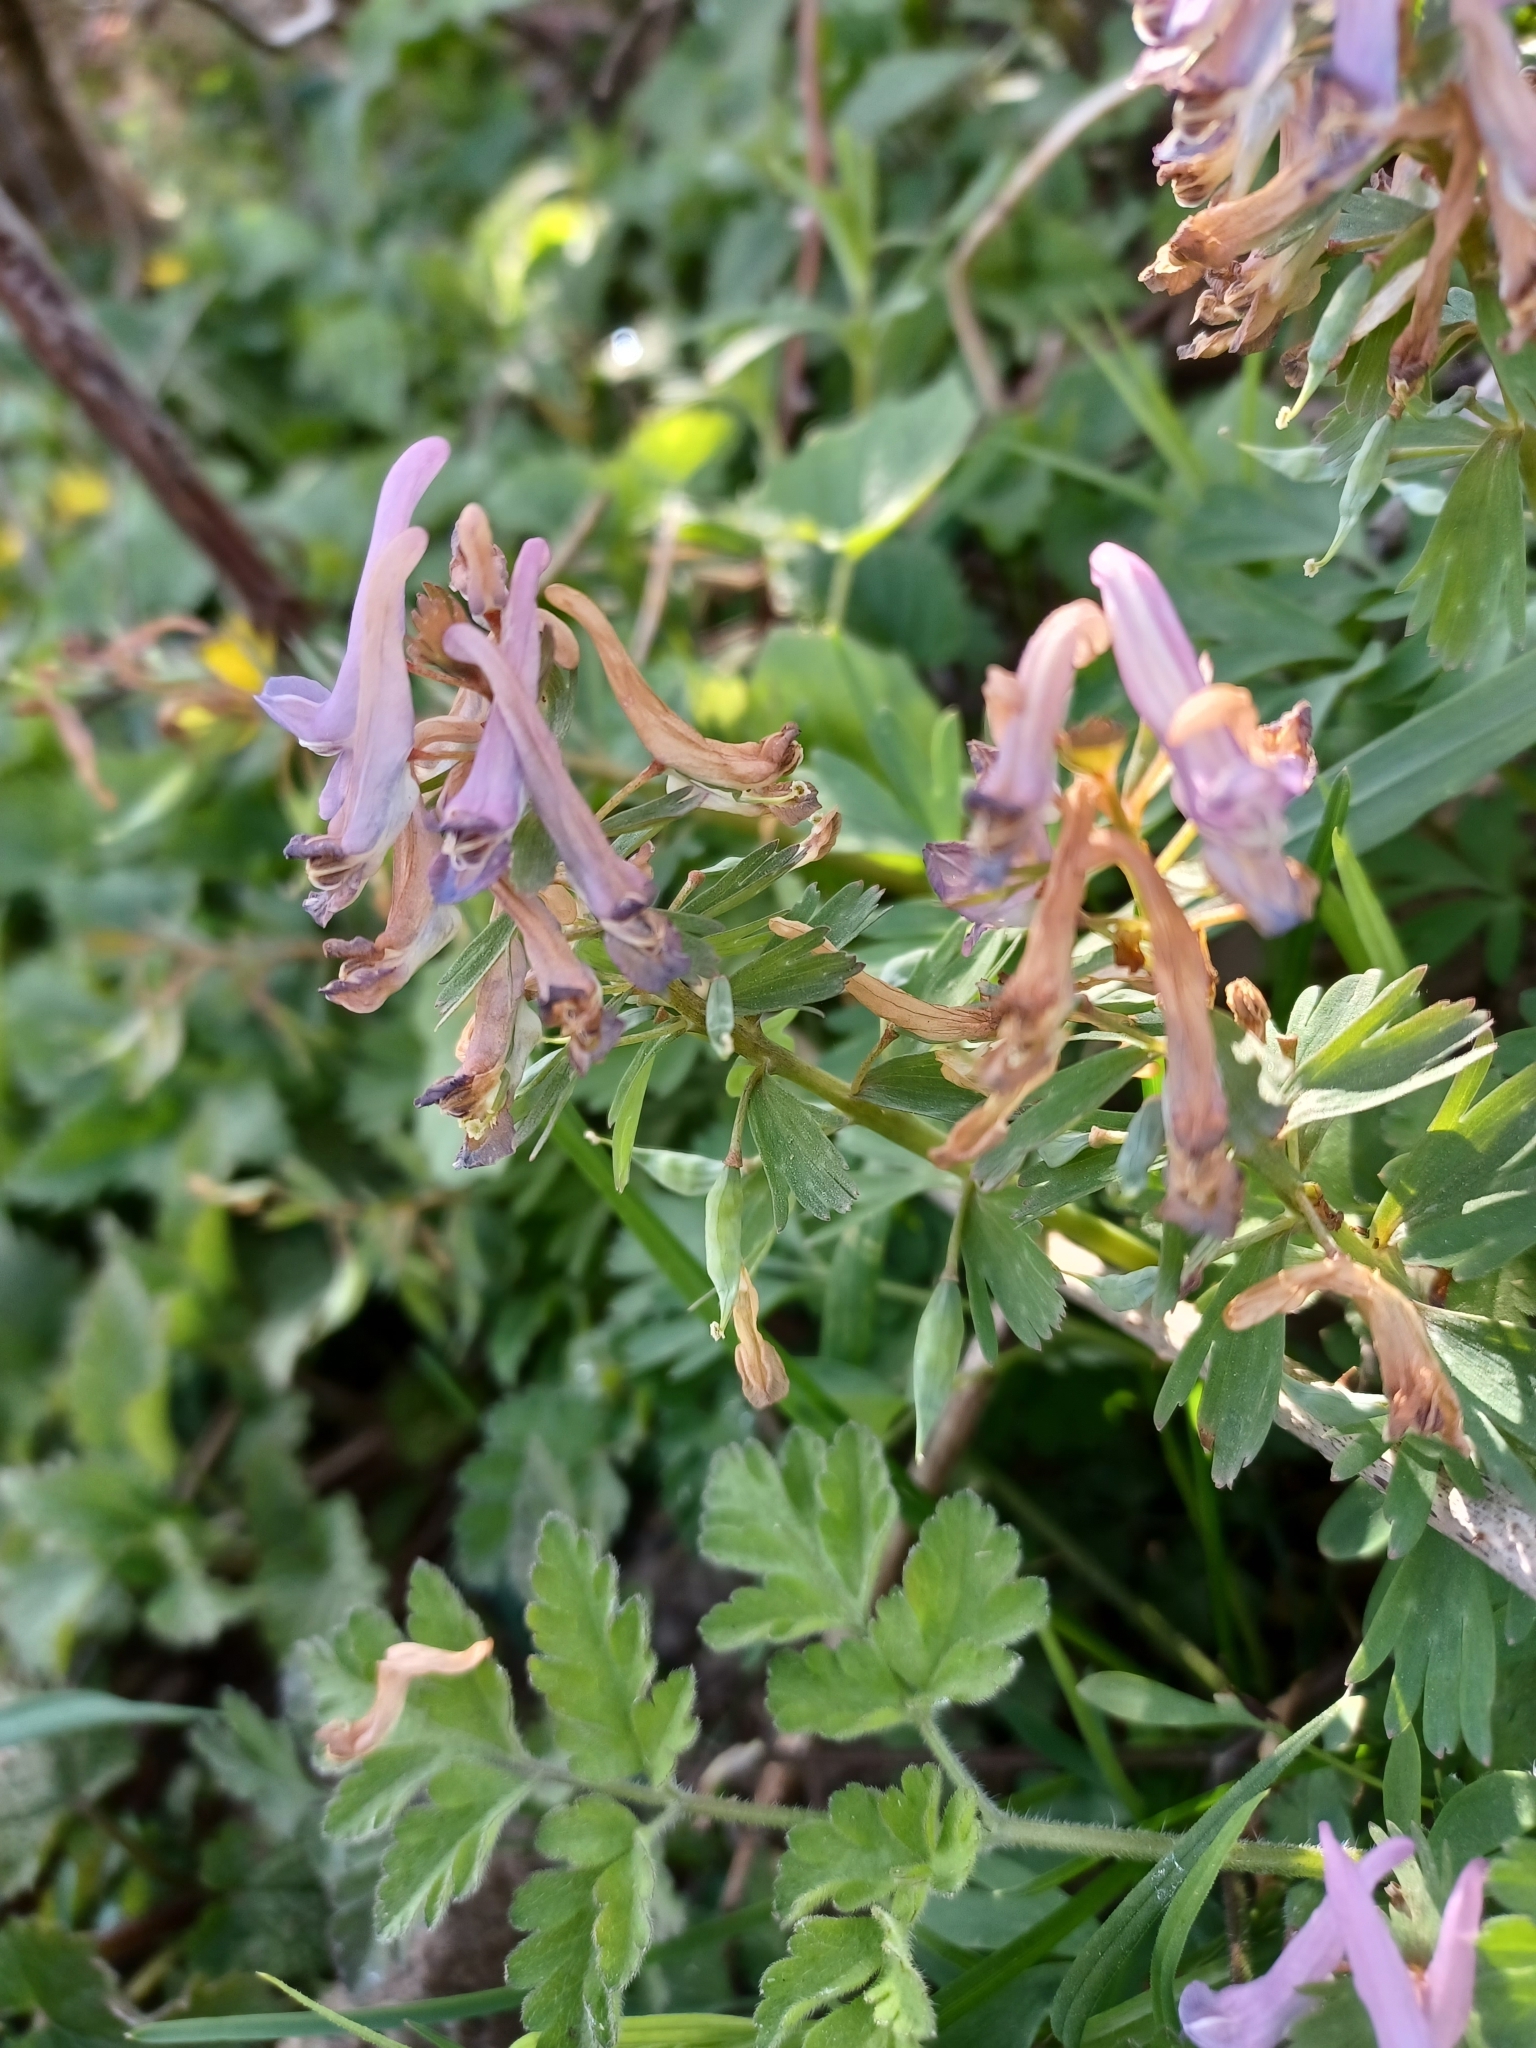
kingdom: Plantae
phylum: Tracheophyta
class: Magnoliopsida
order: Ranunculales
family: Papaveraceae
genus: Corydalis
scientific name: Corydalis solida
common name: Bird-in-a-bush
